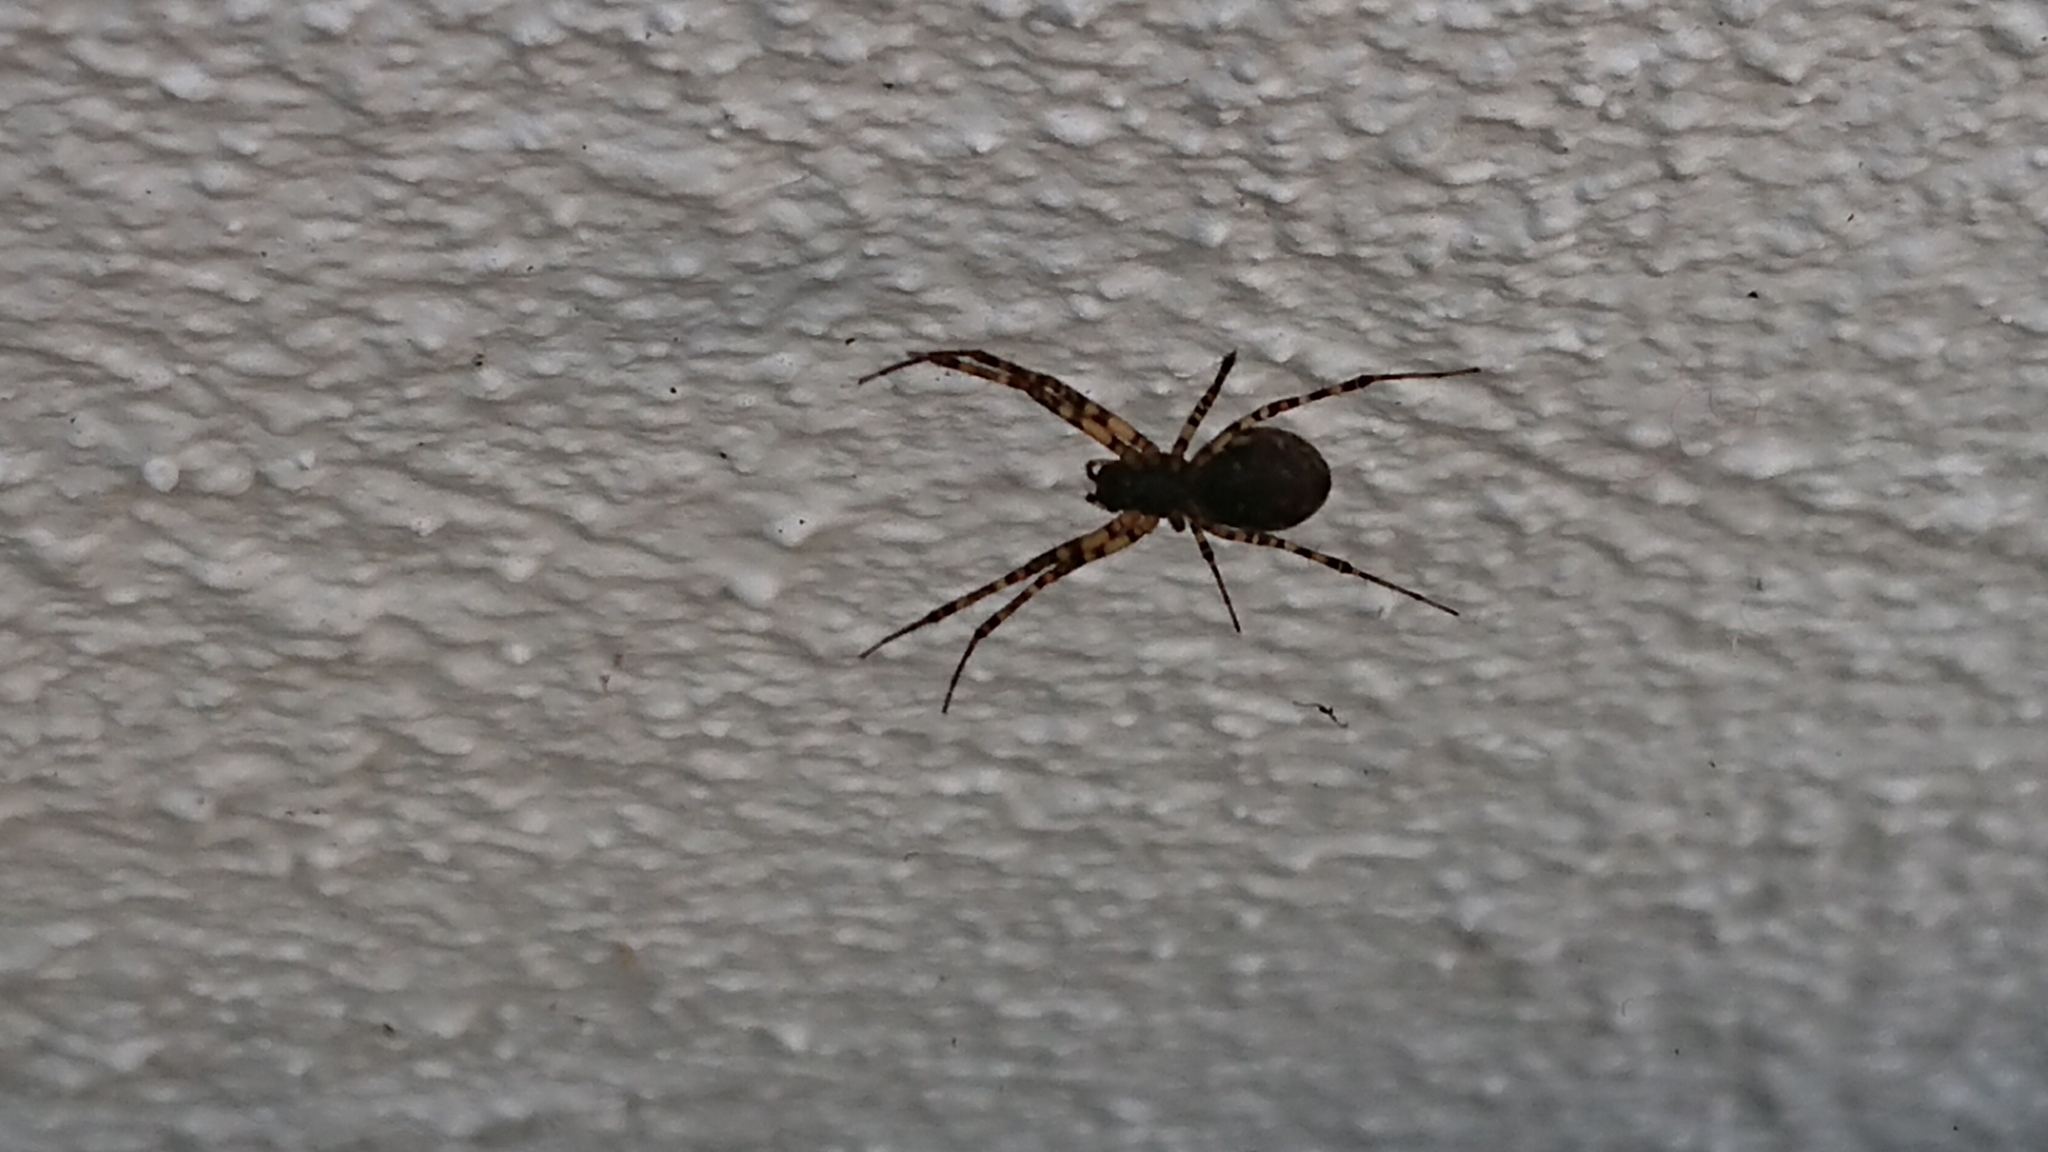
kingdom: Animalia
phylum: Arthropoda
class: Arachnida
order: Araneae
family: Linyphiidae
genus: Neriene
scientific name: Neriene montana
